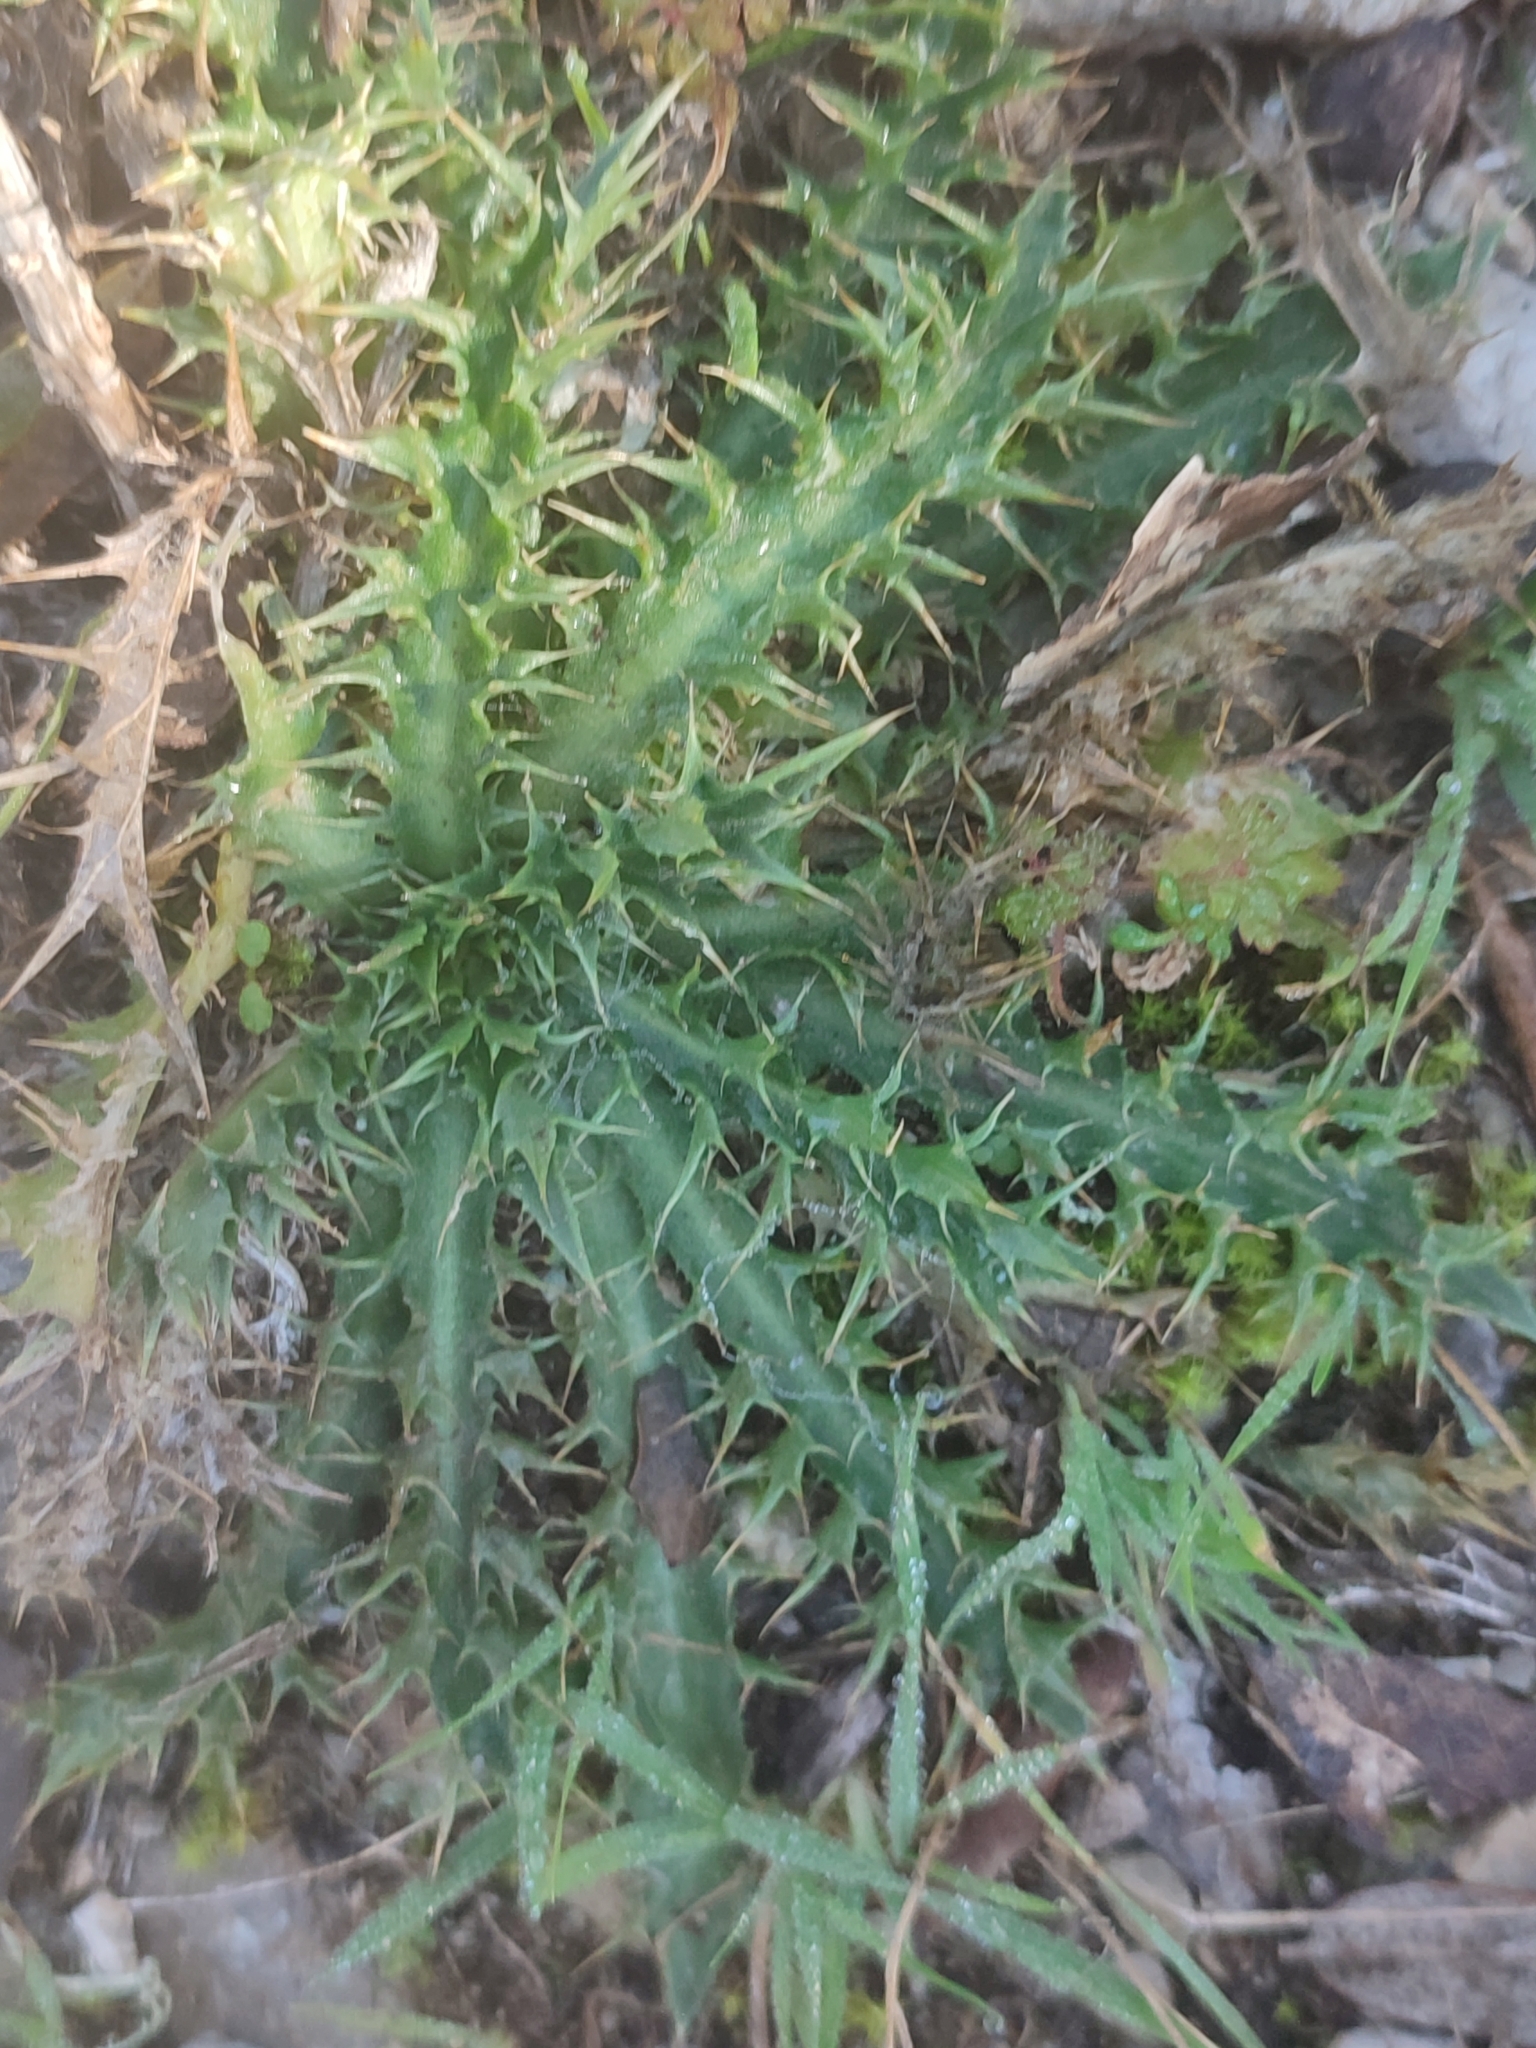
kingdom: Plantae
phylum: Tracheophyta
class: Magnoliopsida
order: Asterales
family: Asteraceae
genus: Carlina
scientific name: Carlina corymbosa
